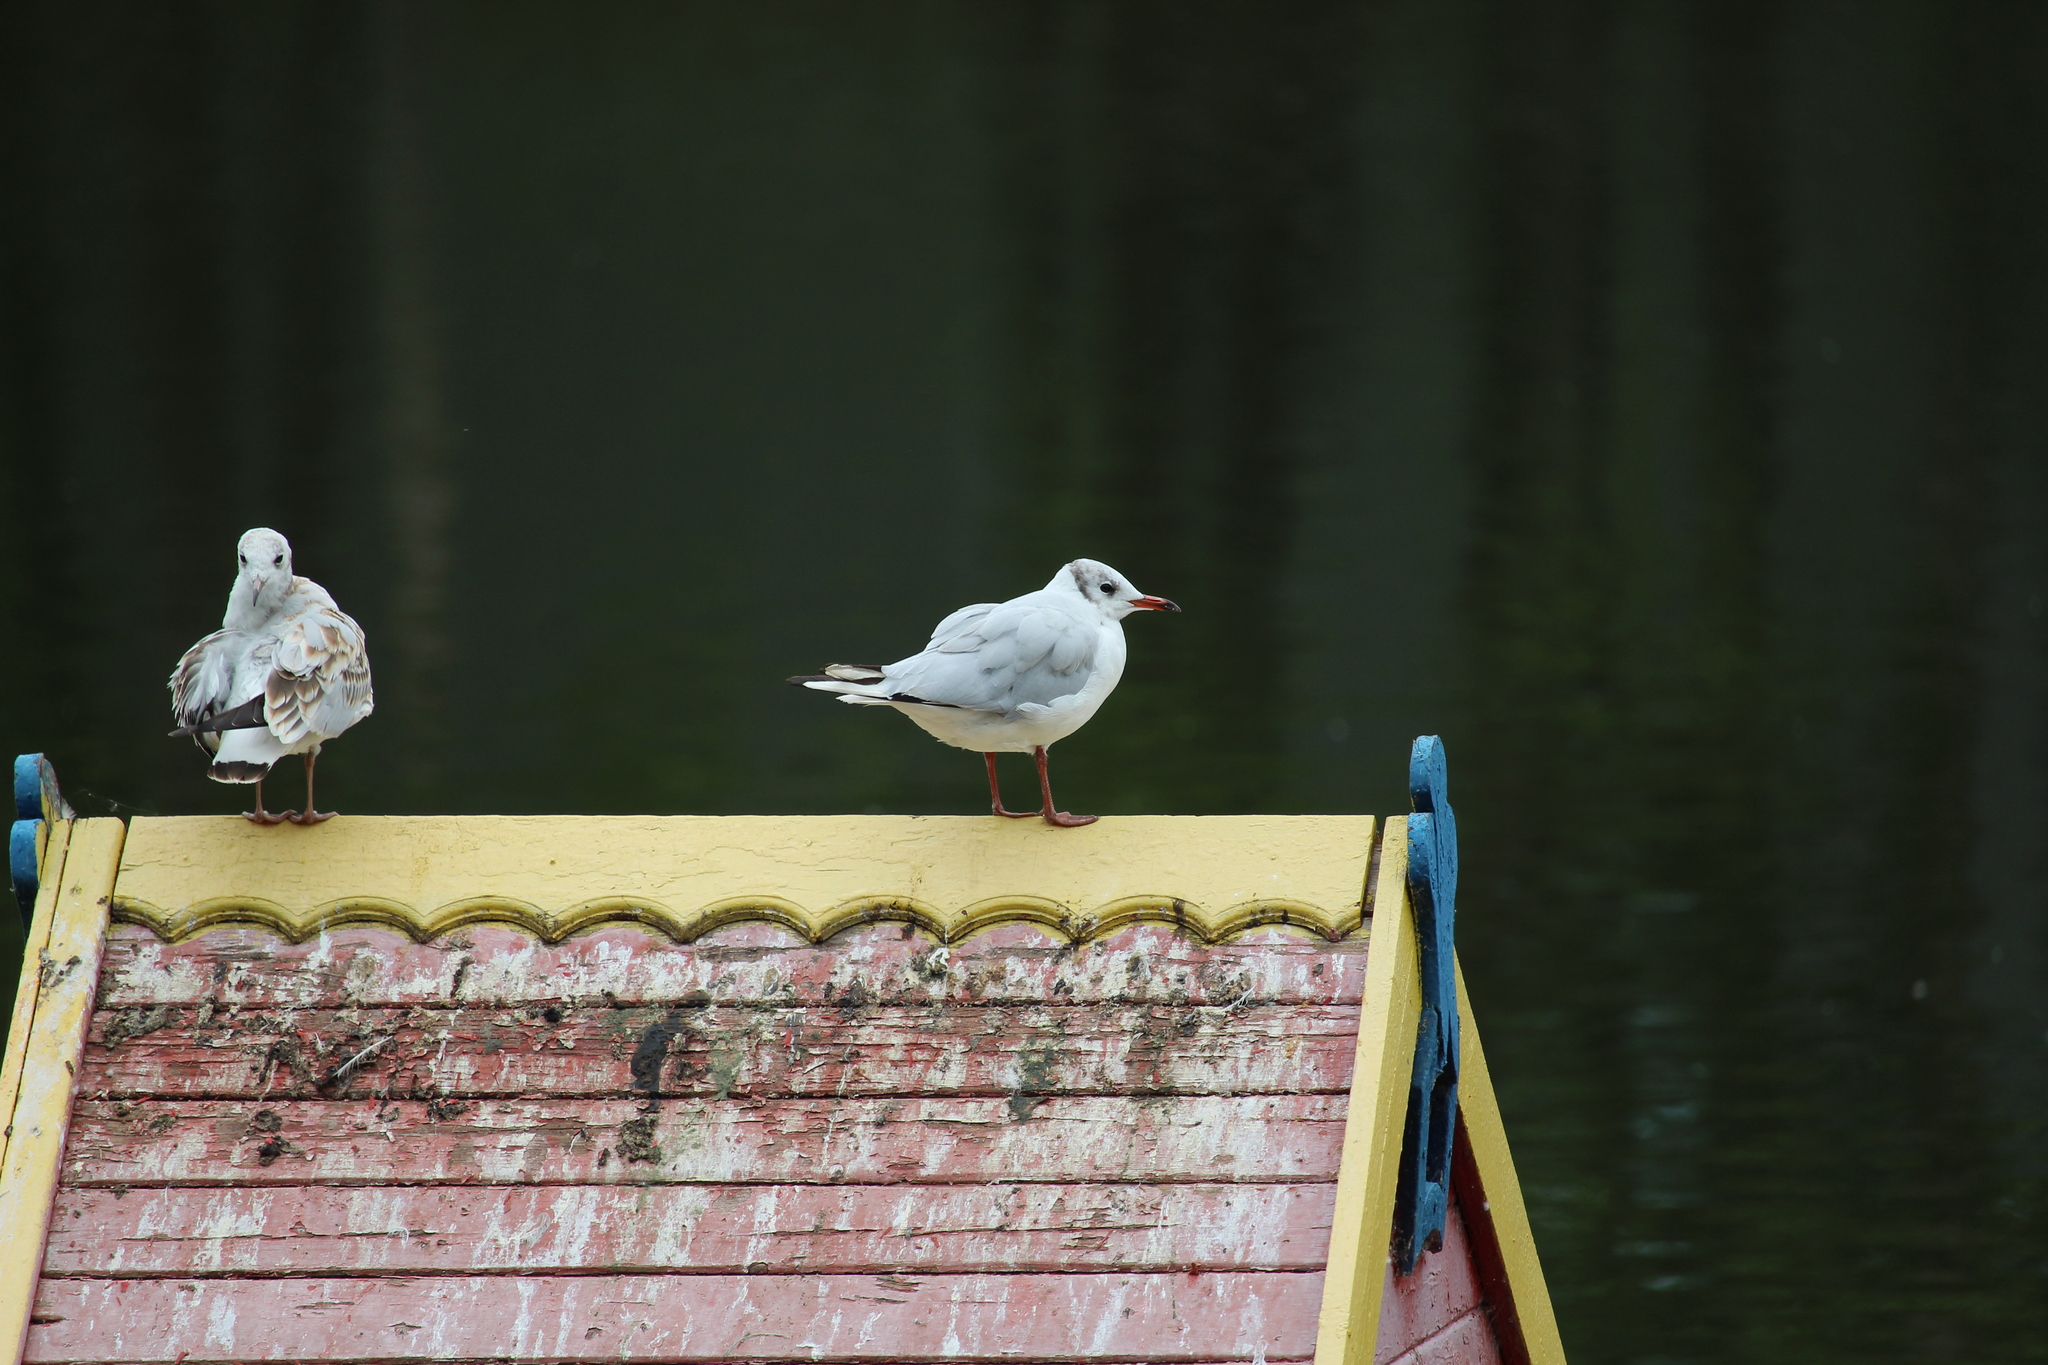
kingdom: Animalia
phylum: Chordata
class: Aves
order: Charadriiformes
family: Laridae
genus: Chroicocephalus
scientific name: Chroicocephalus ridibundus
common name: Black-headed gull
